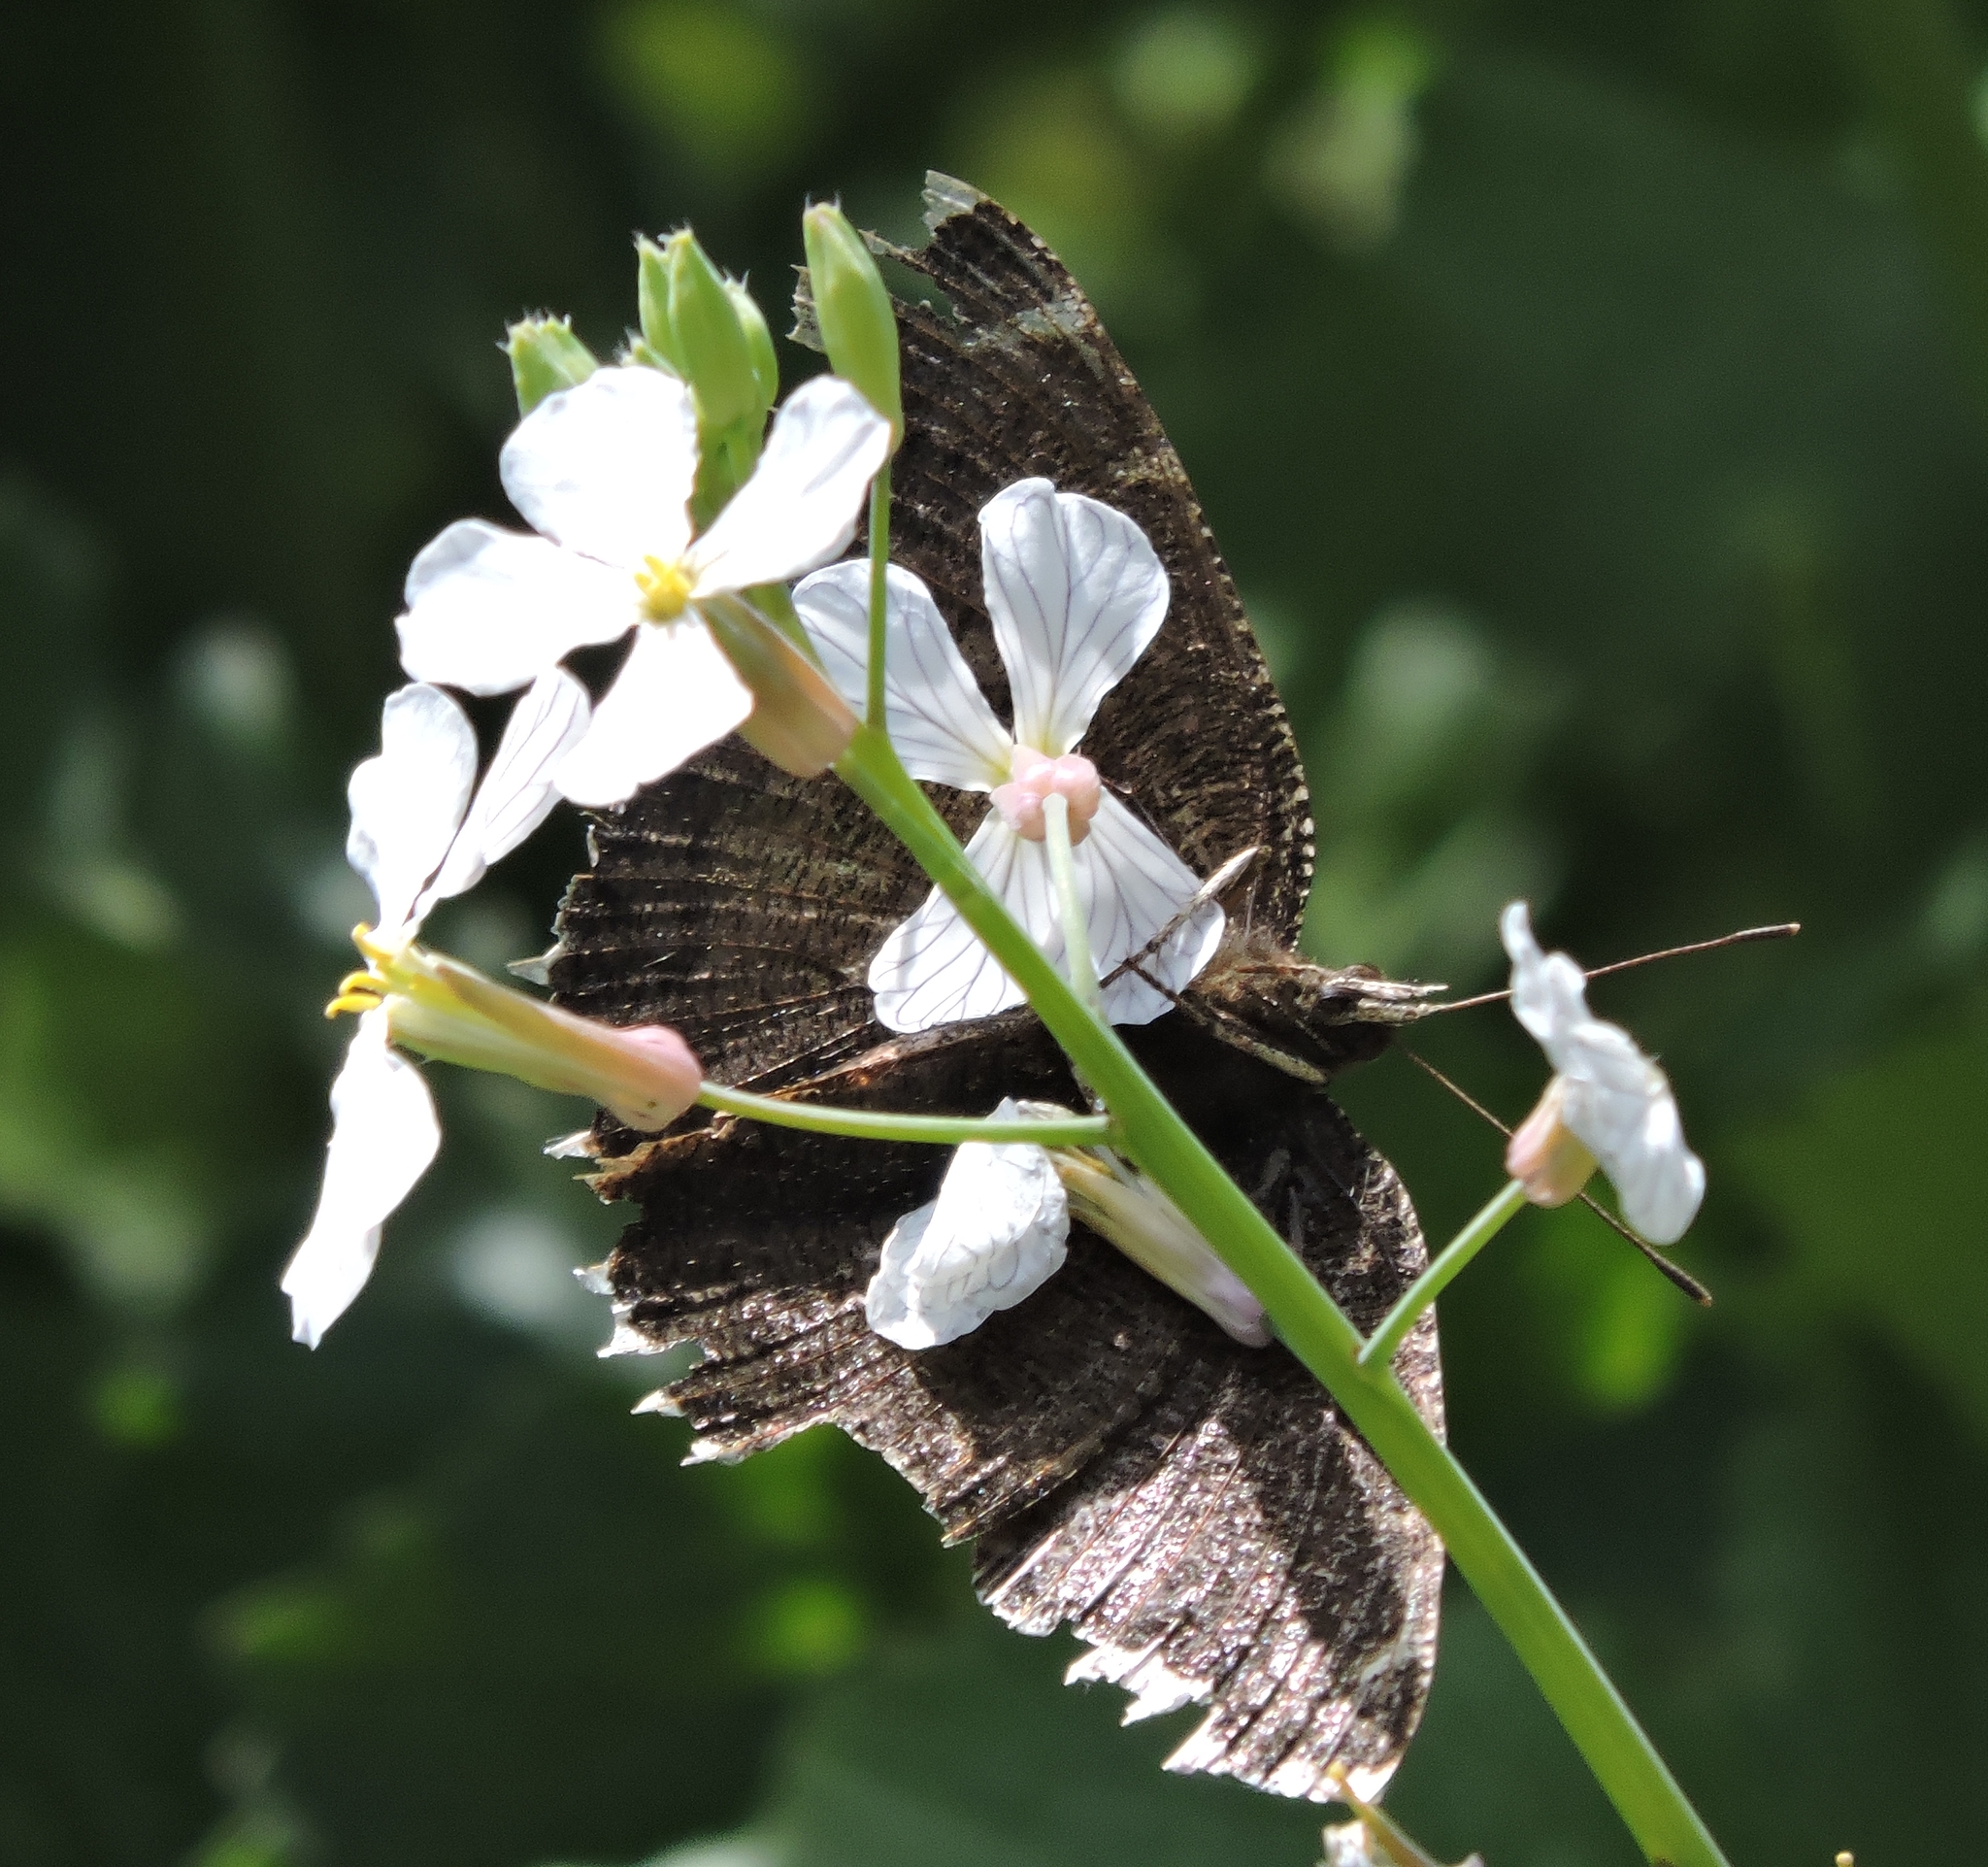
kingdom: Animalia
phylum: Arthropoda
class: Insecta
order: Lepidoptera
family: Nymphalidae
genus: Nymphalis
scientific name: Nymphalis antiopa
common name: Camberwell beauty
